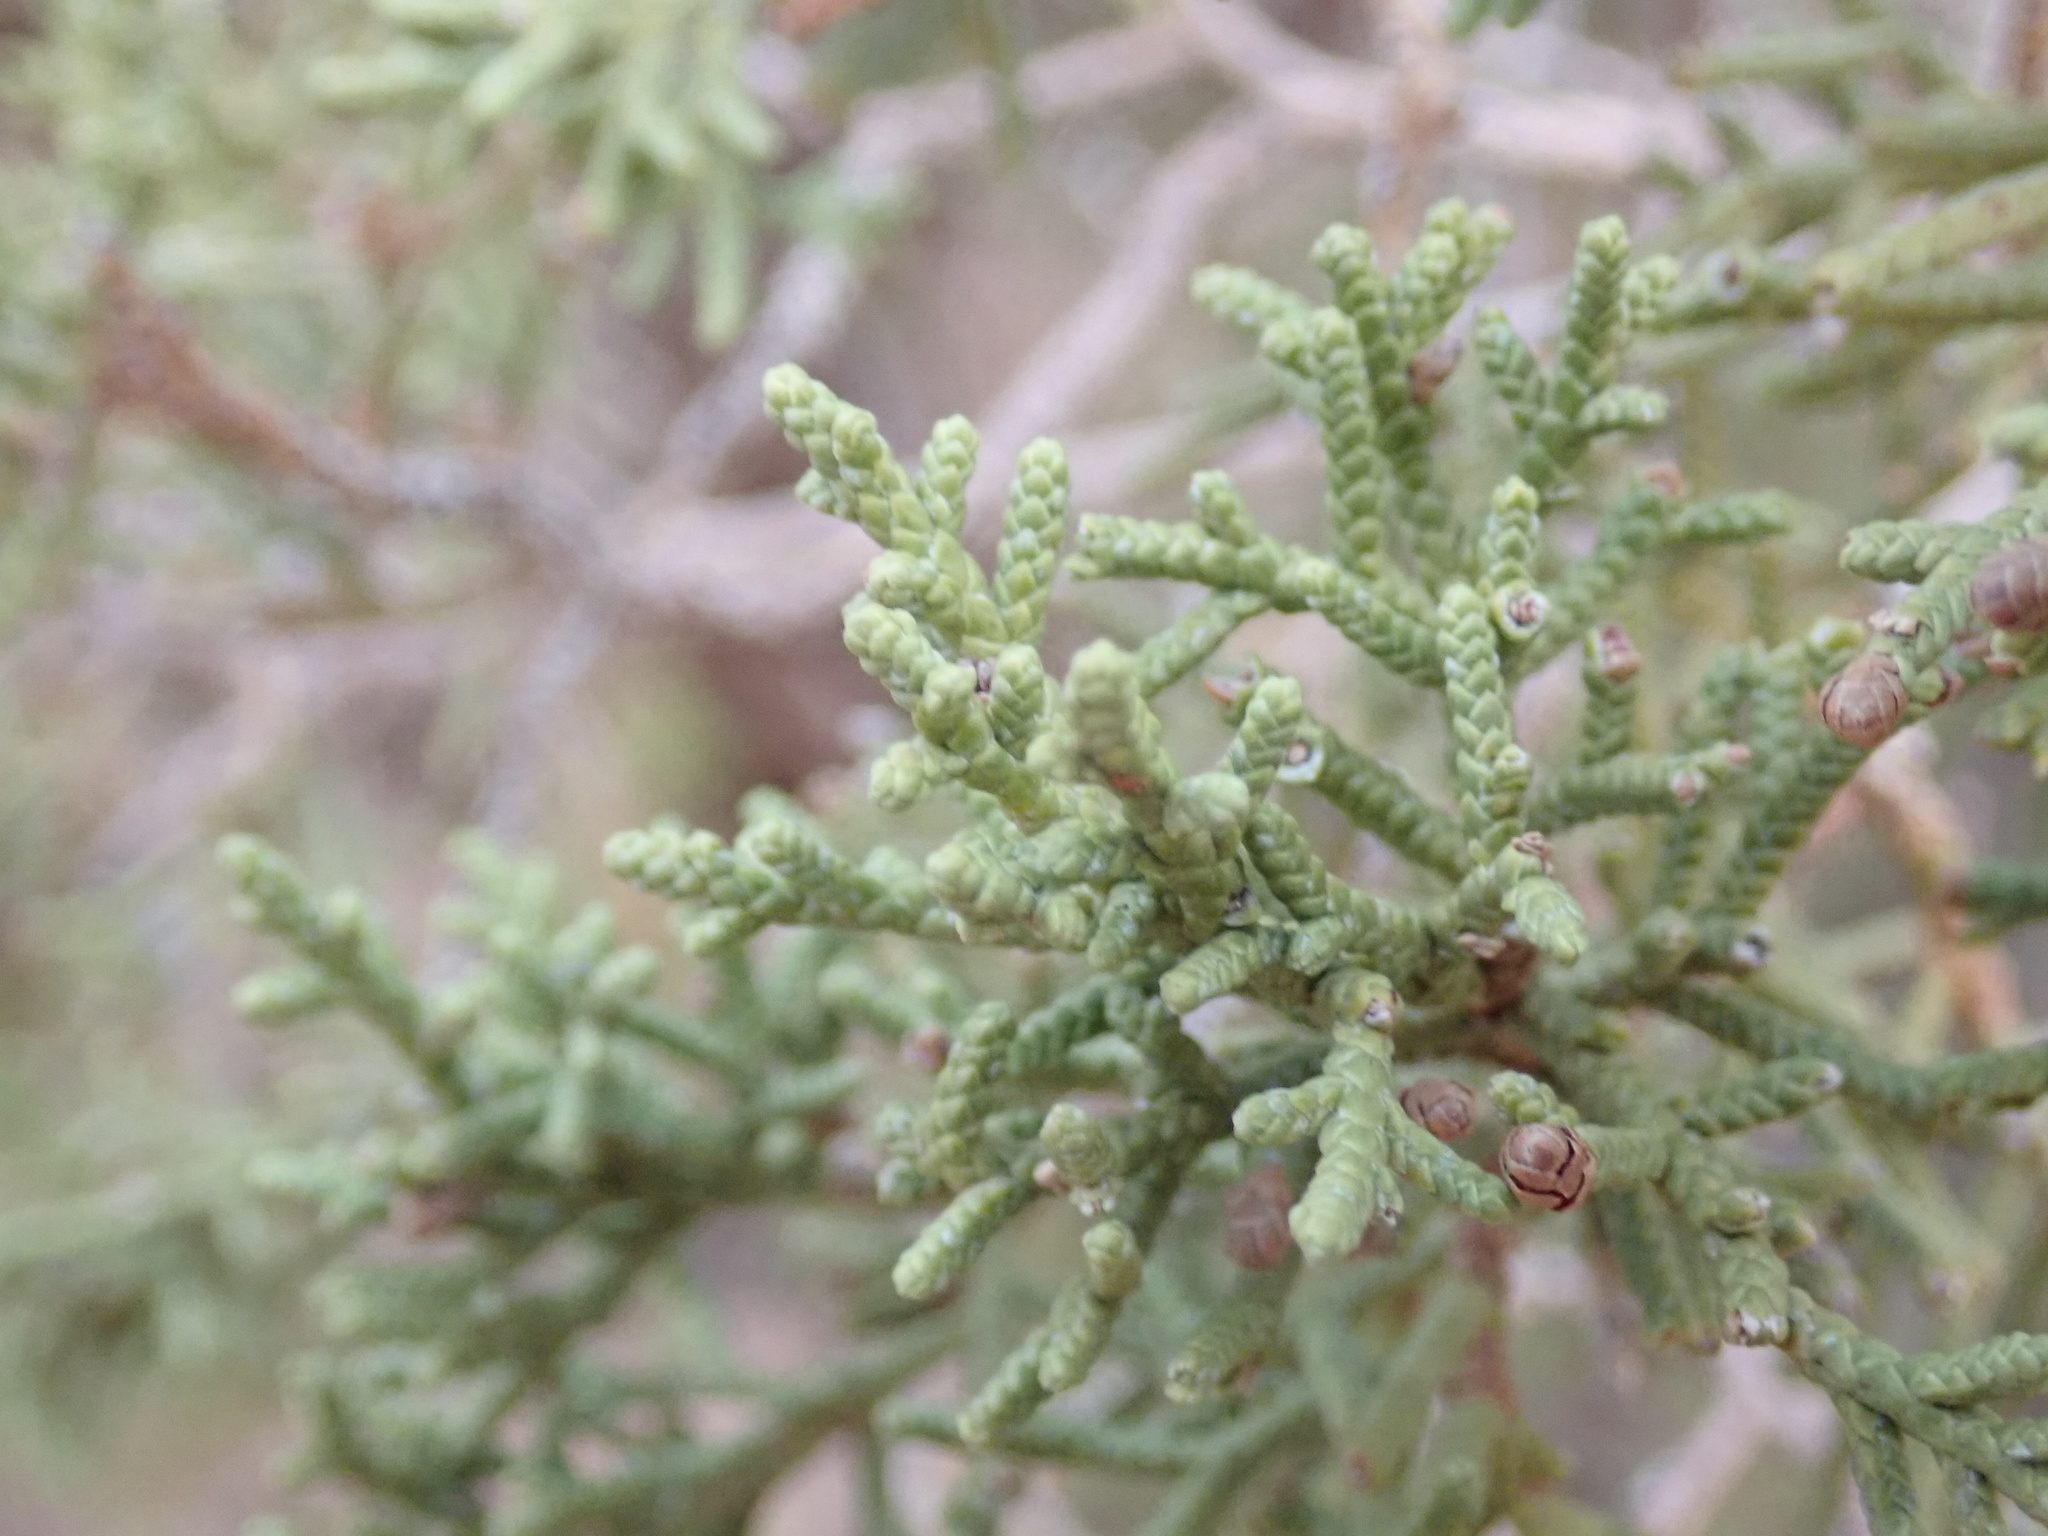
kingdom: Plantae
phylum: Tracheophyta
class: Pinopsida
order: Pinales
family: Cupressaceae
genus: Juniperus
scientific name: Juniperus osteosperma
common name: Utah juniper
